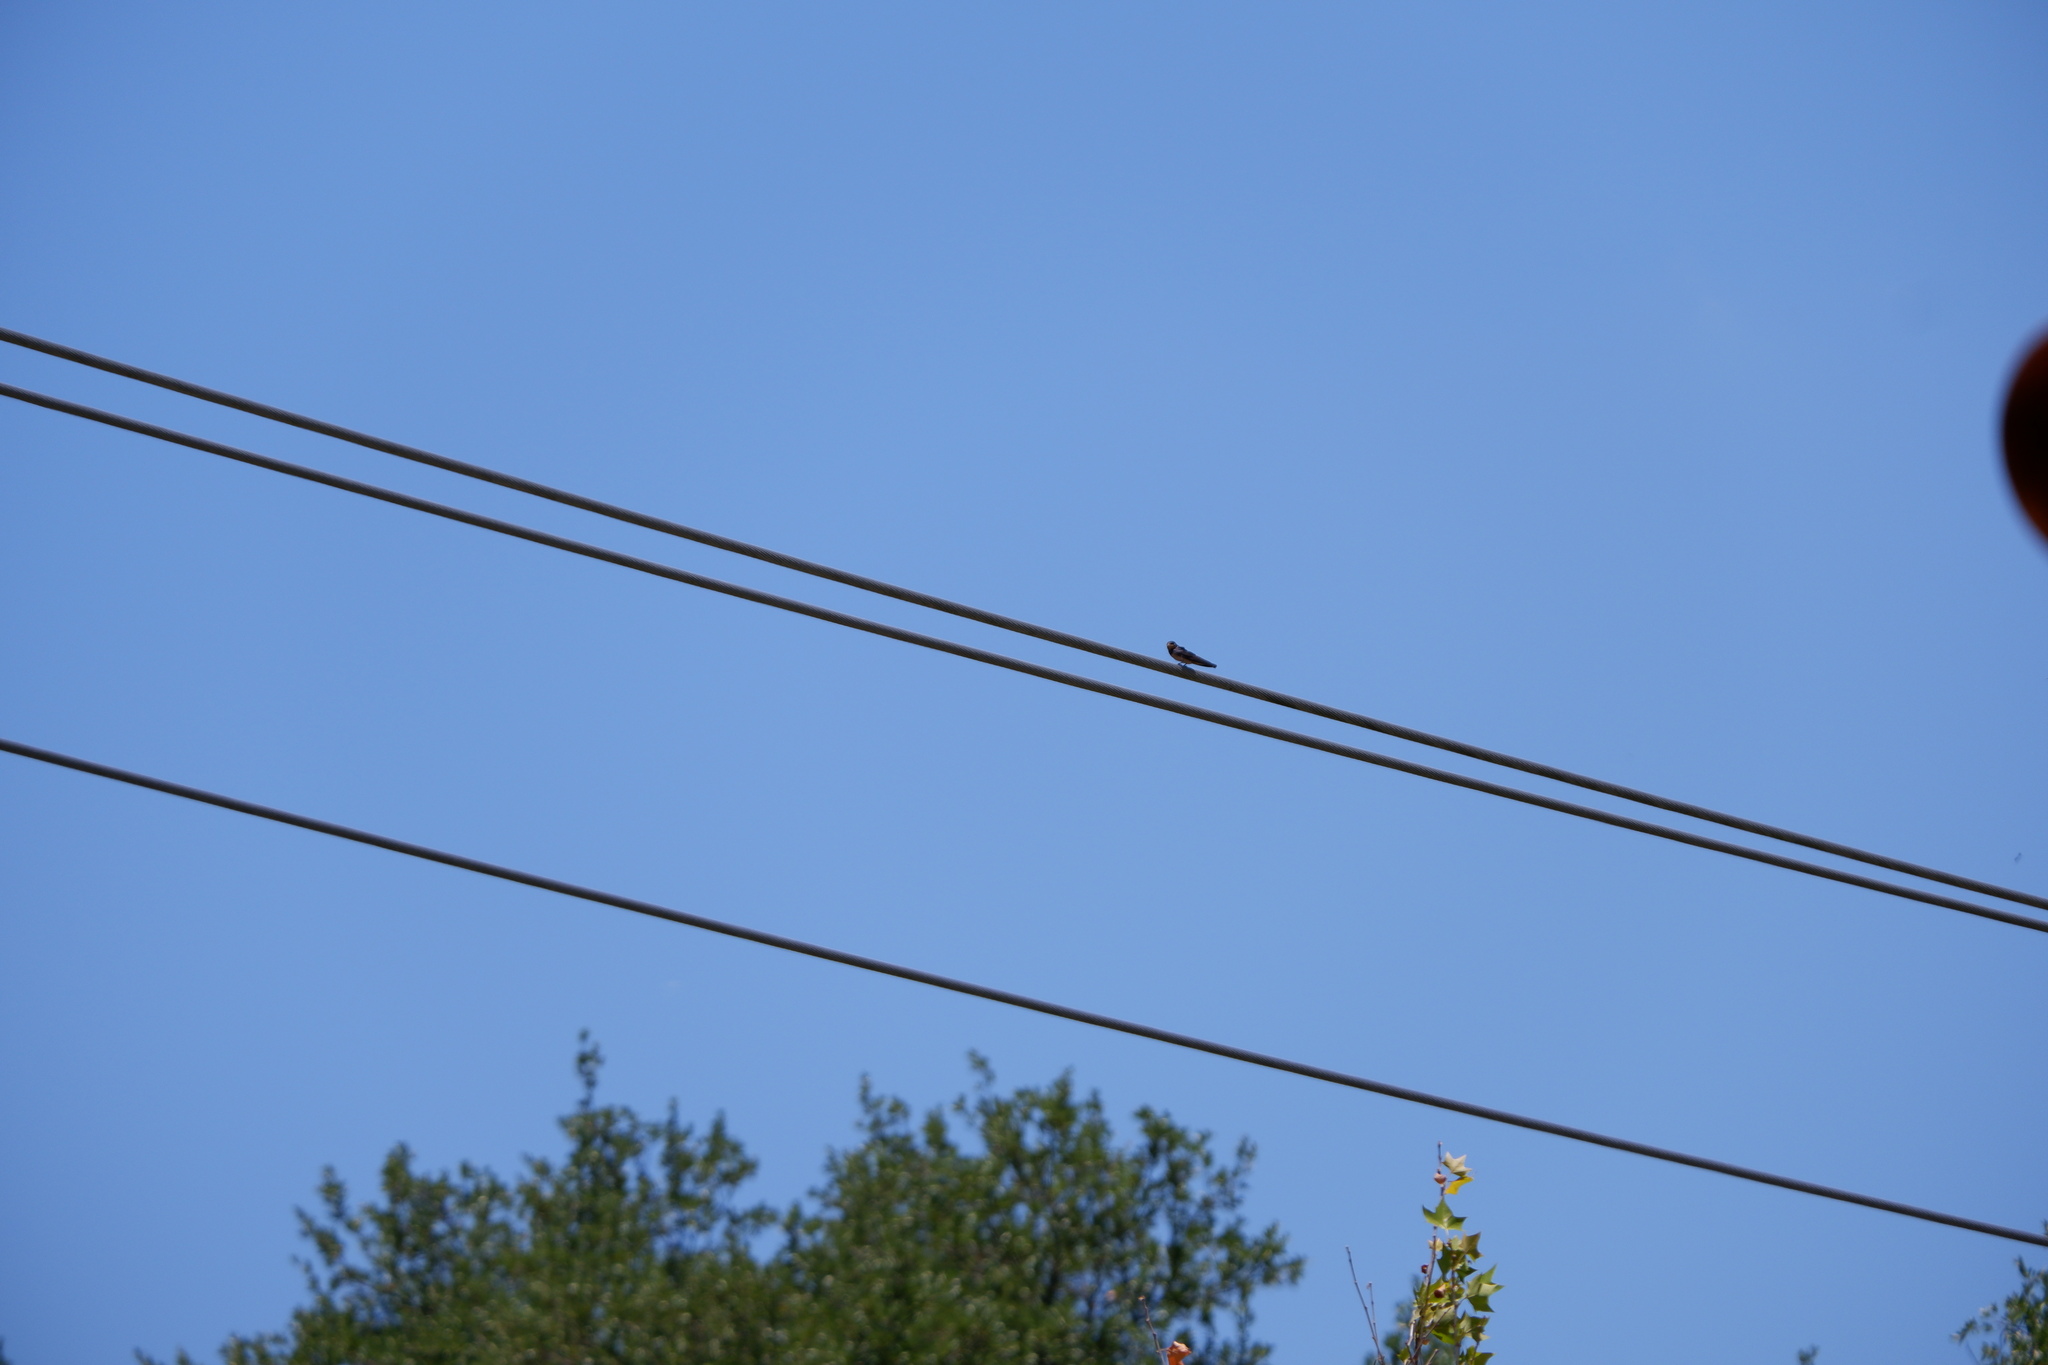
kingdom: Animalia
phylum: Chordata
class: Aves
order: Passeriformes
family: Hirundinidae
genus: Hirundo
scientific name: Hirundo rustica
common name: Barn swallow
